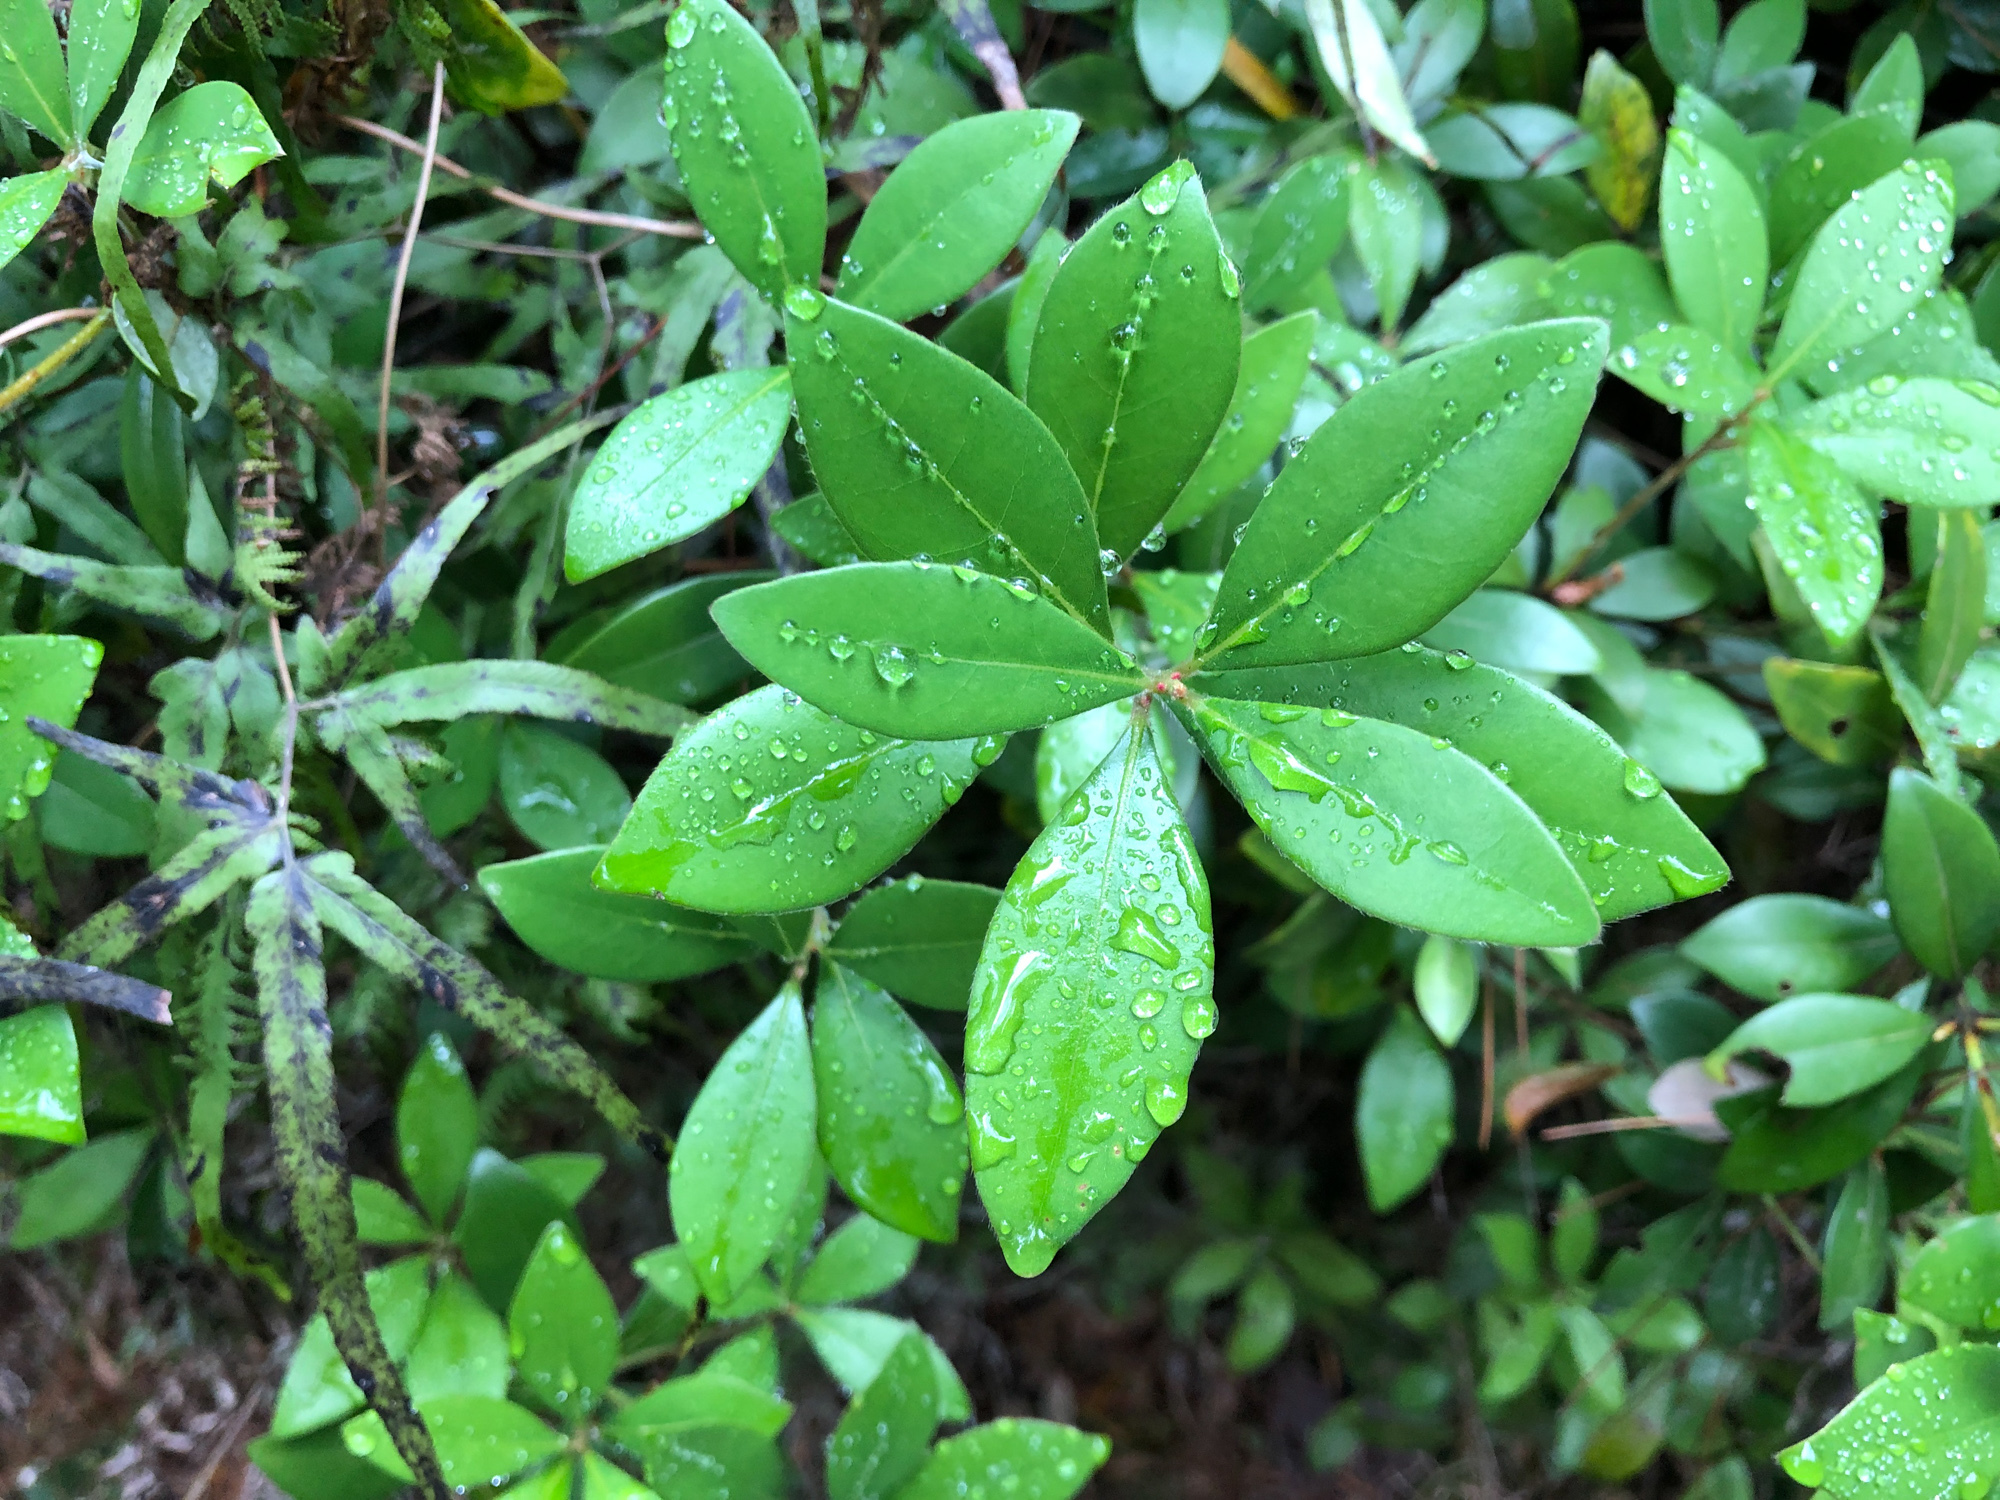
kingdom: Plantae
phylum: Tracheophyta
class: Magnoliopsida
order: Laurales
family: Lauraceae
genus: Litsea
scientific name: Litsea rotundifolia
